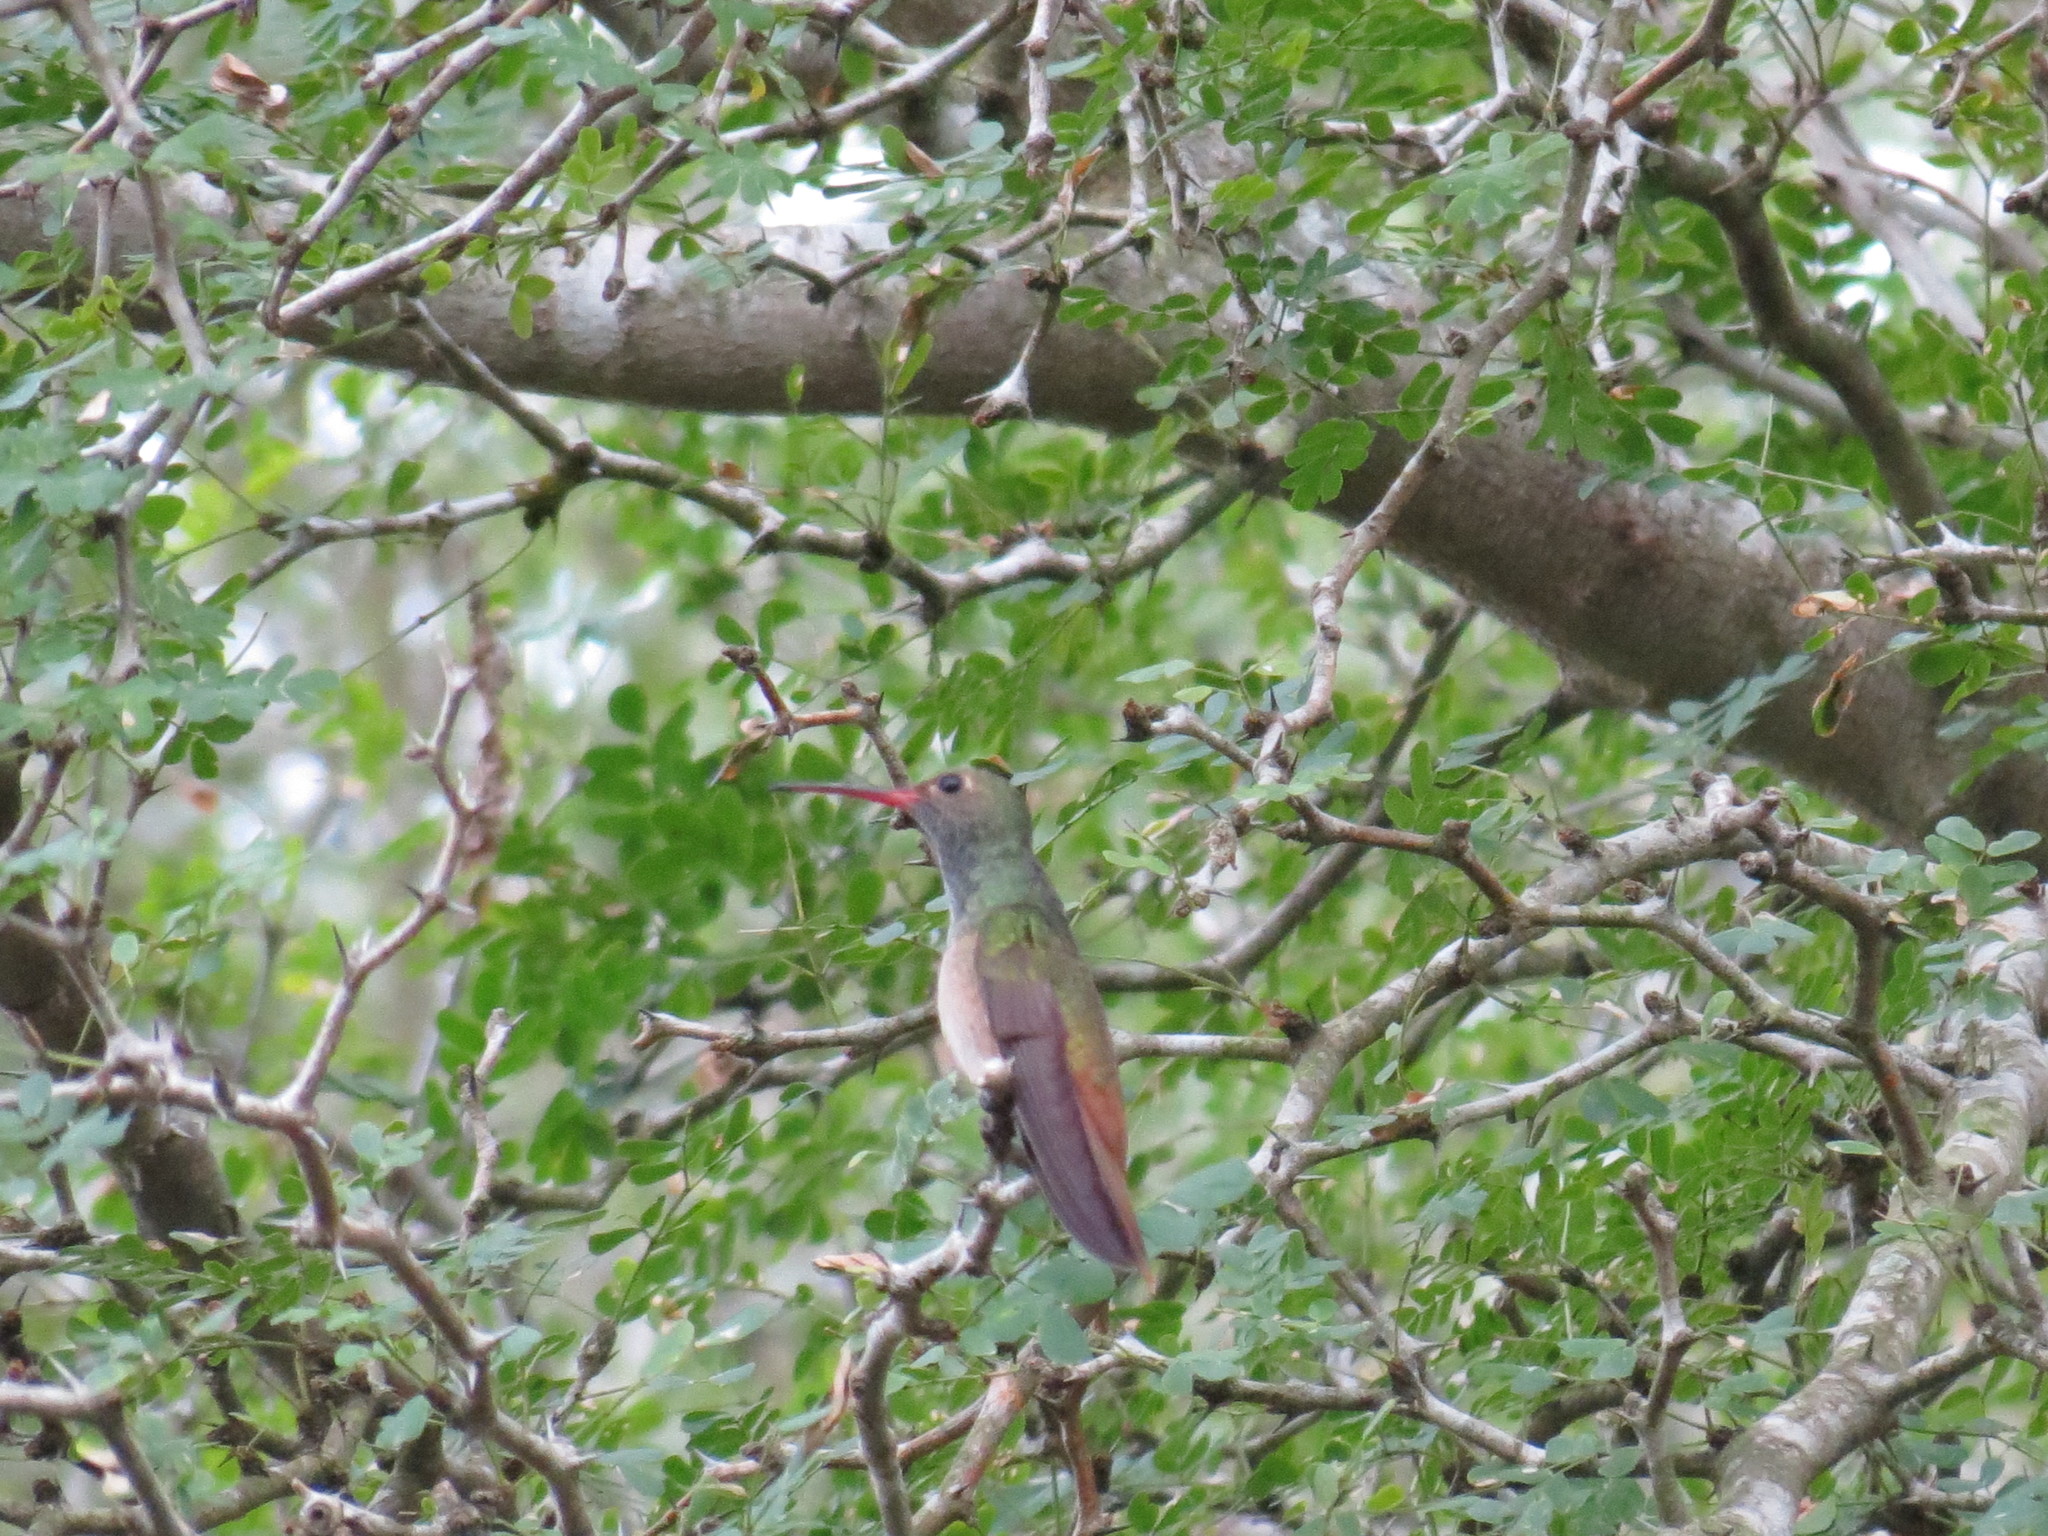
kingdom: Animalia
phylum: Chordata
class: Aves
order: Apodiformes
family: Trochilidae
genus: Amazilia
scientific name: Amazilia yucatanensis
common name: Buff-bellied hummingbird
